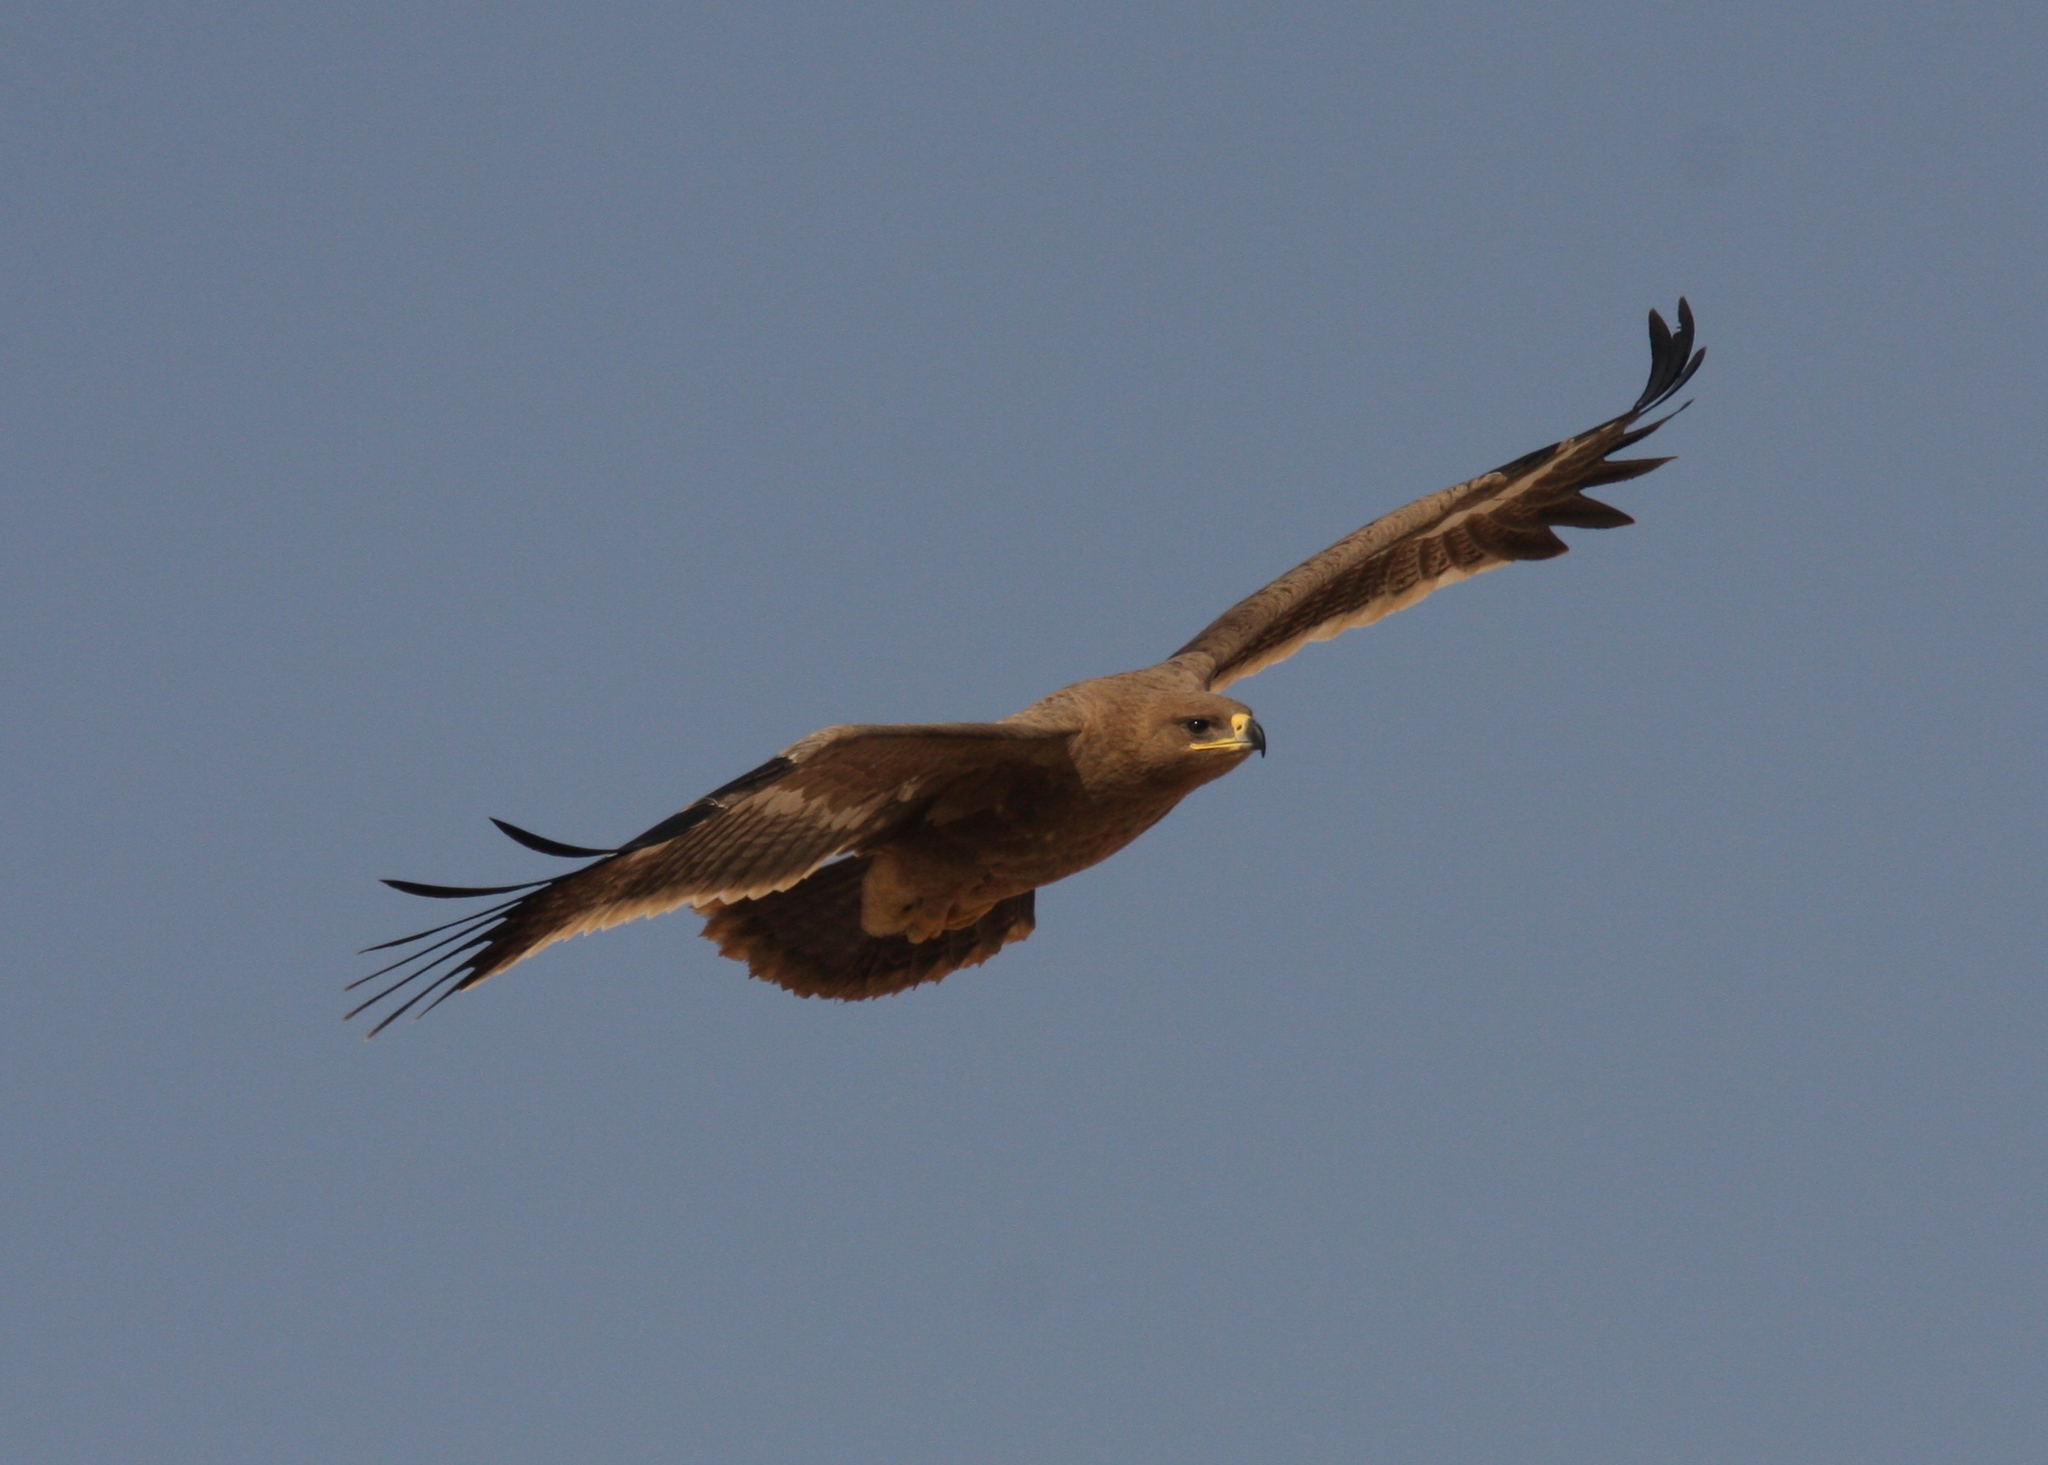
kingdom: Animalia
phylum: Chordata
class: Aves
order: Accipitriformes
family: Accipitridae
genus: Aquila
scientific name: Aquila nipalensis
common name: Steppe eagle
